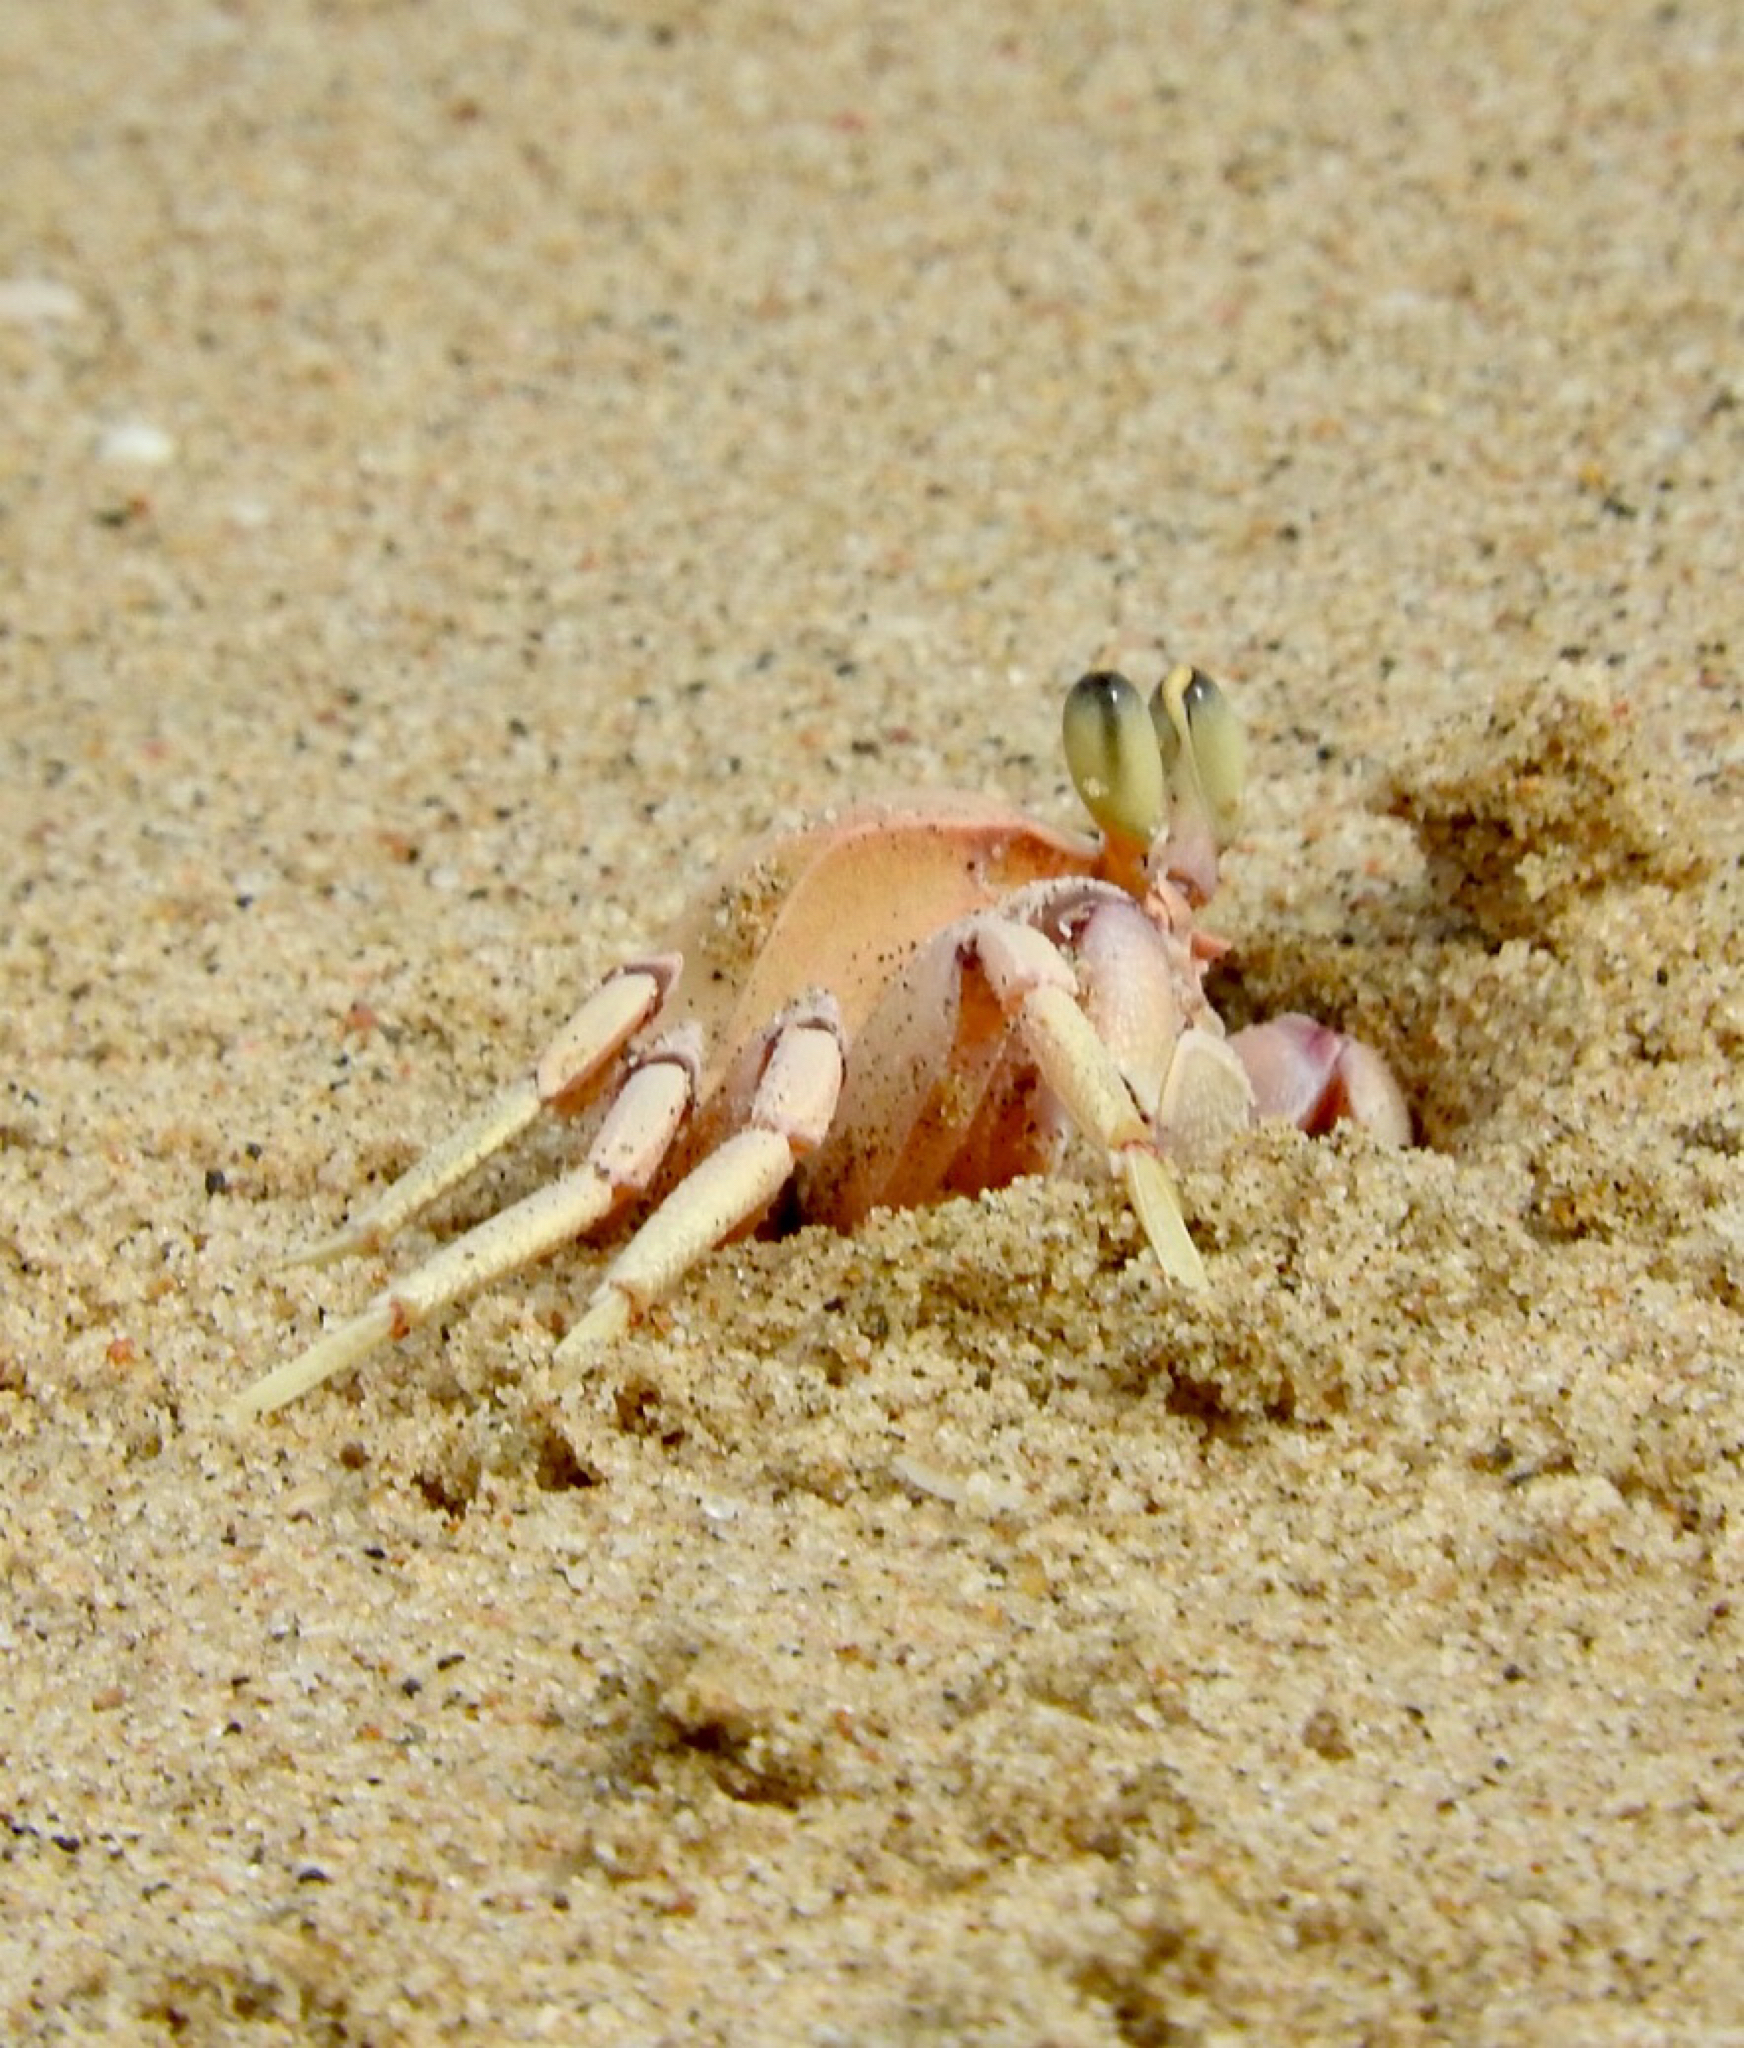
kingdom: Animalia
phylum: Arthropoda
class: Malacostraca
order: Decapoda
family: Ocypodidae
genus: Ocypode
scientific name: Ocypode ryderi
